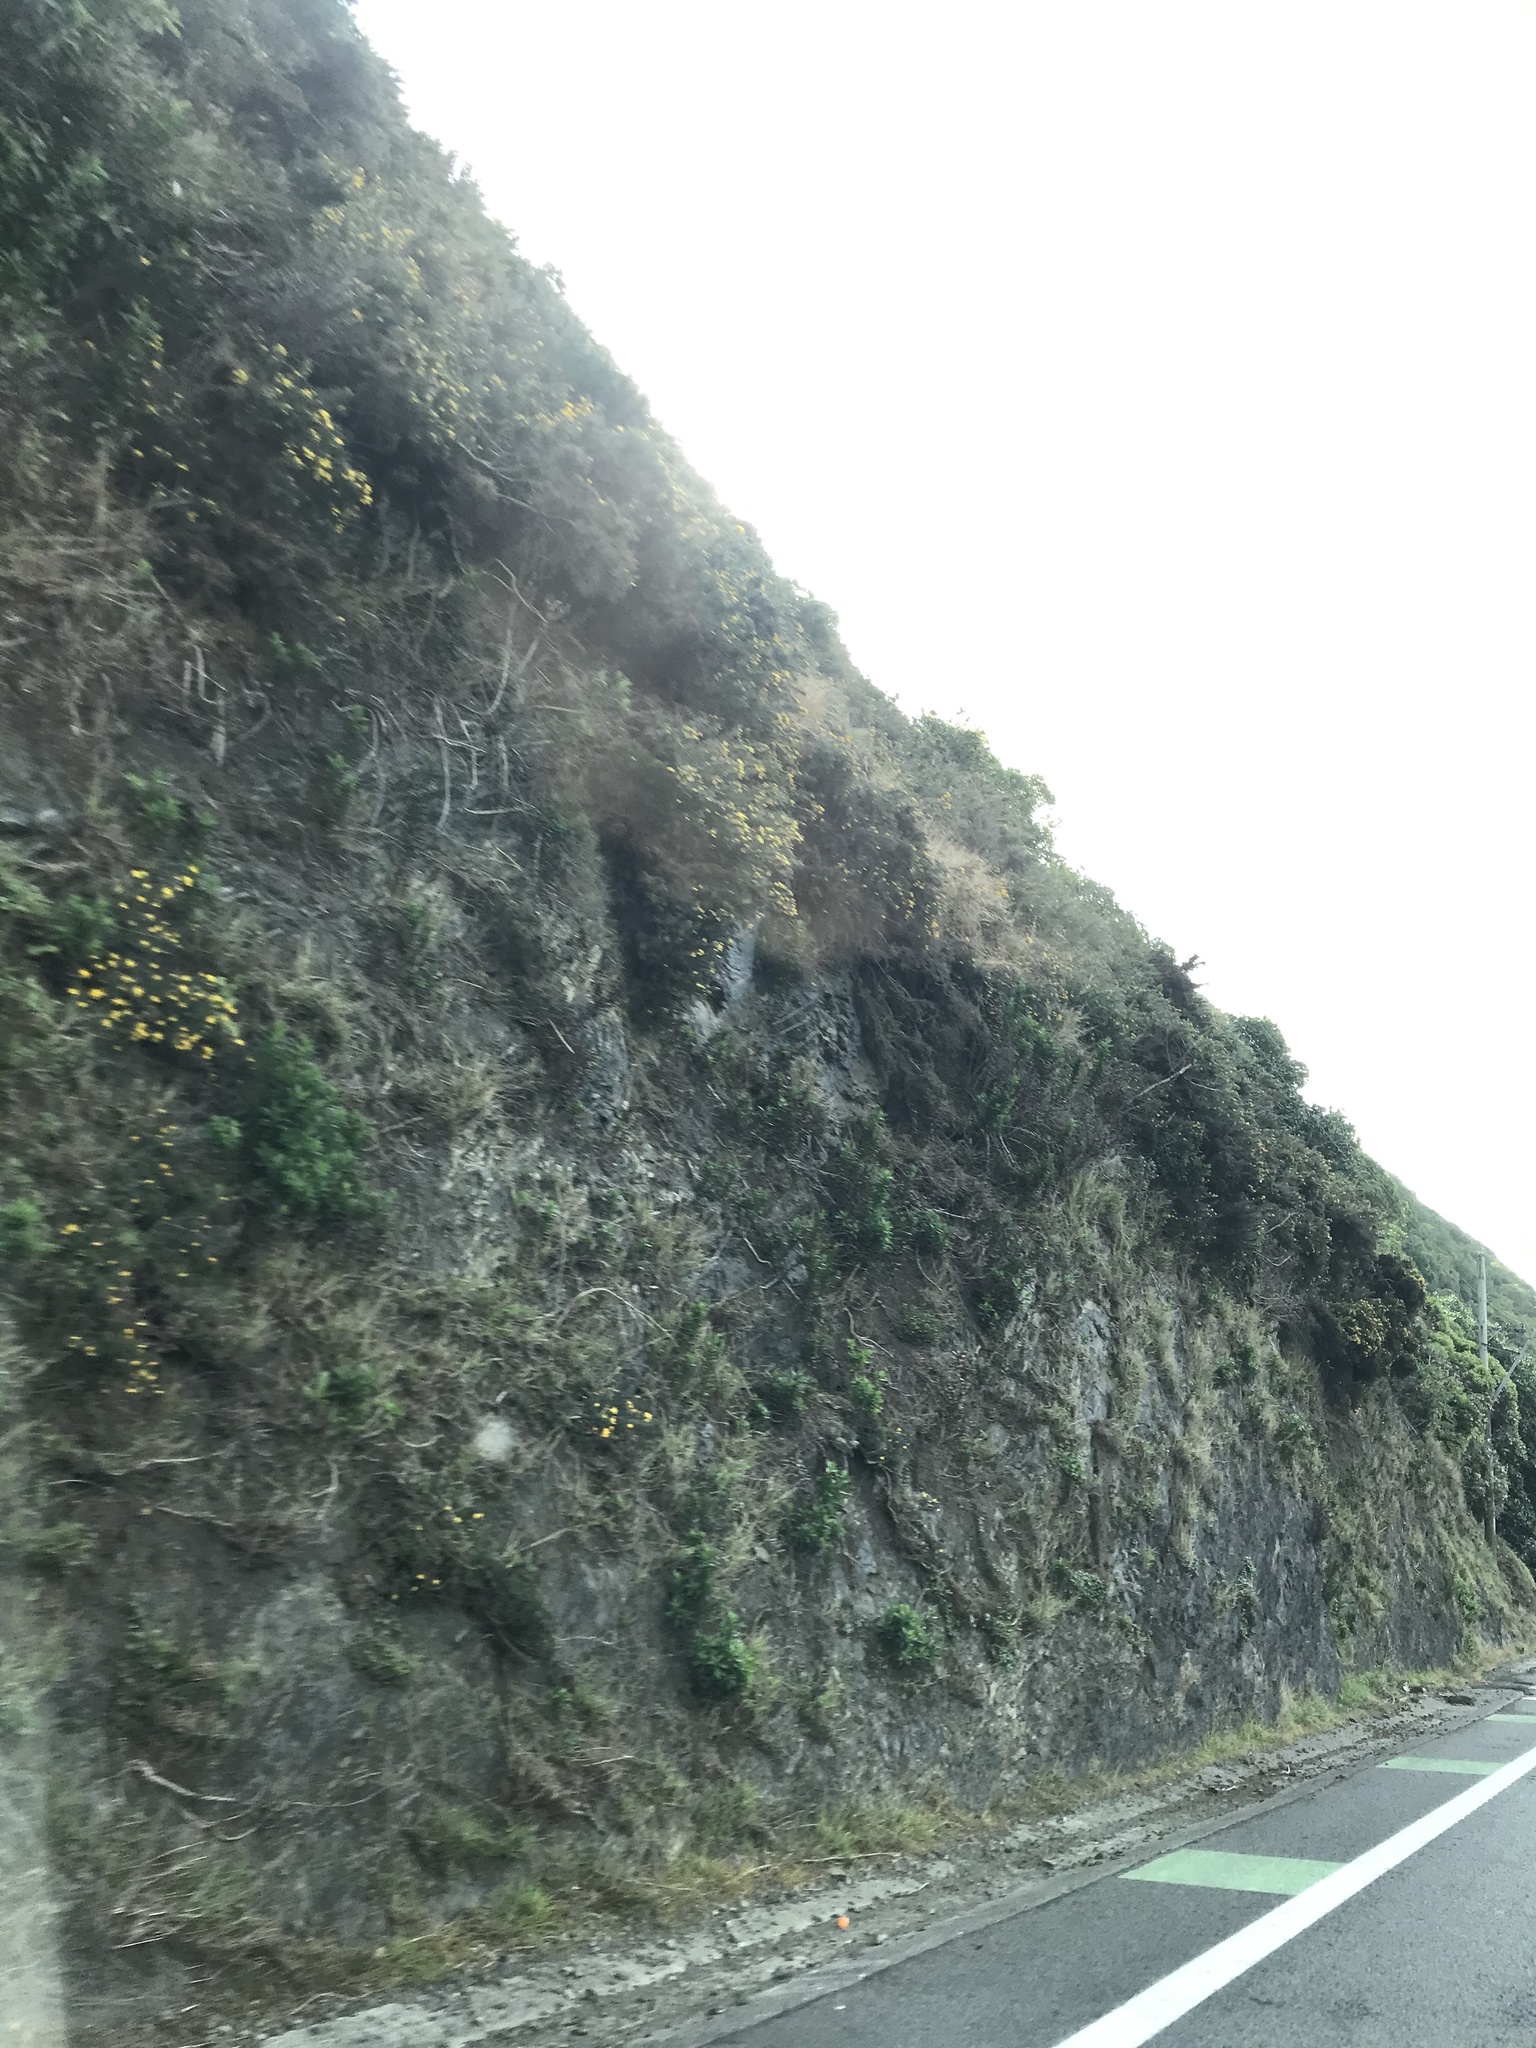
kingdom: Plantae
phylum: Tracheophyta
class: Magnoliopsida
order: Fabales
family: Fabaceae
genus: Ulex
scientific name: Ulex europaeus
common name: Common gorse
